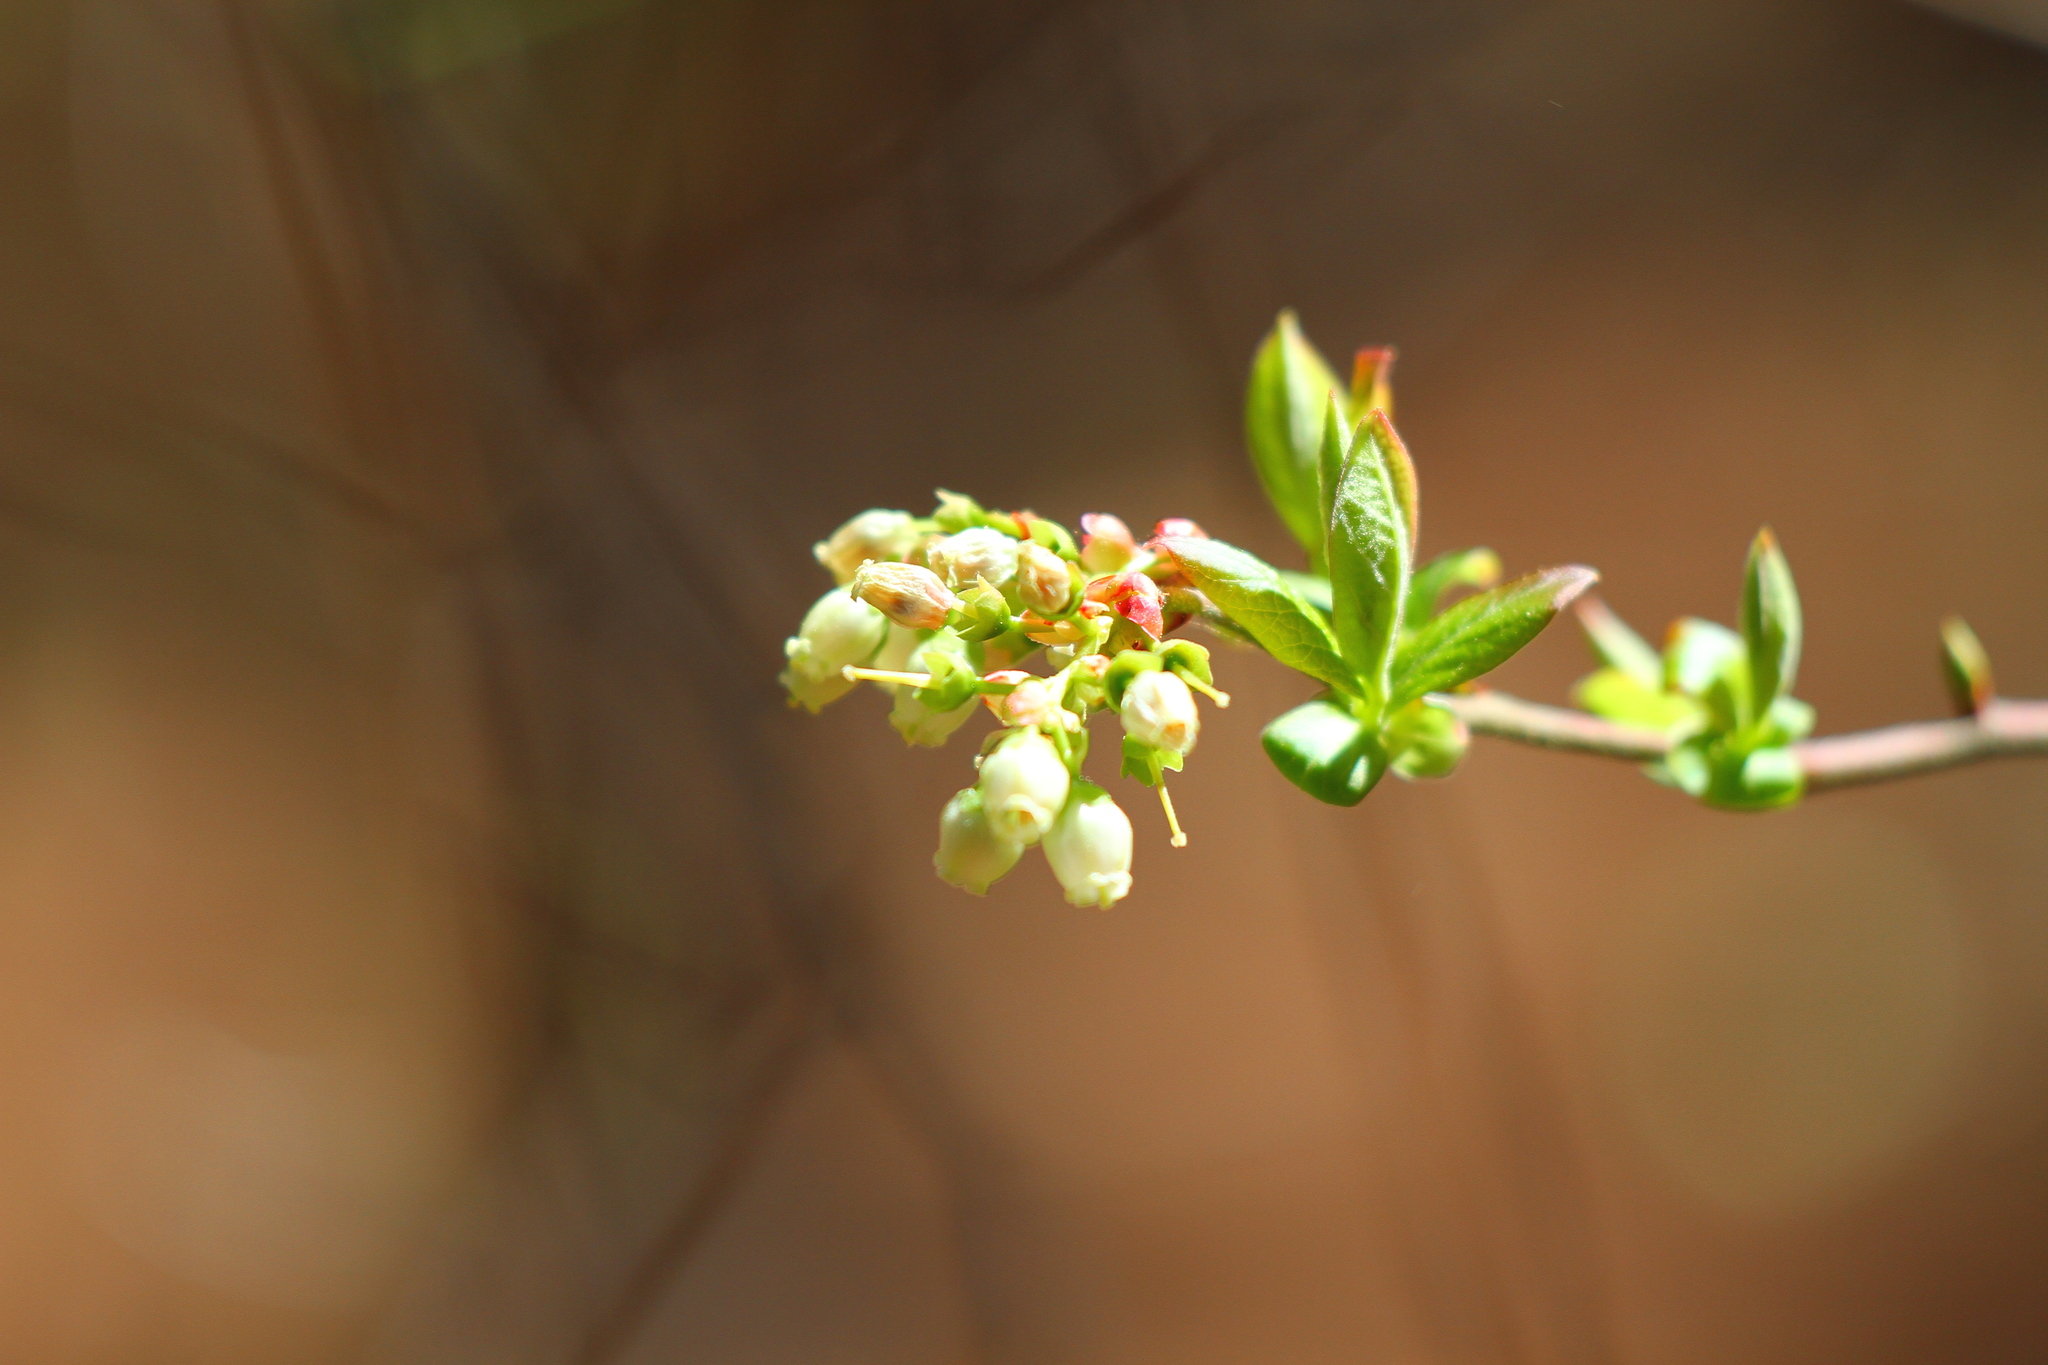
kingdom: Plantae
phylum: Tracheophyta
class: Magnoliopsida
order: Ericales
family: Ericaceae
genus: Vaccinium
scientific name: Vaccinium corymbosum
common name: Blueberry
